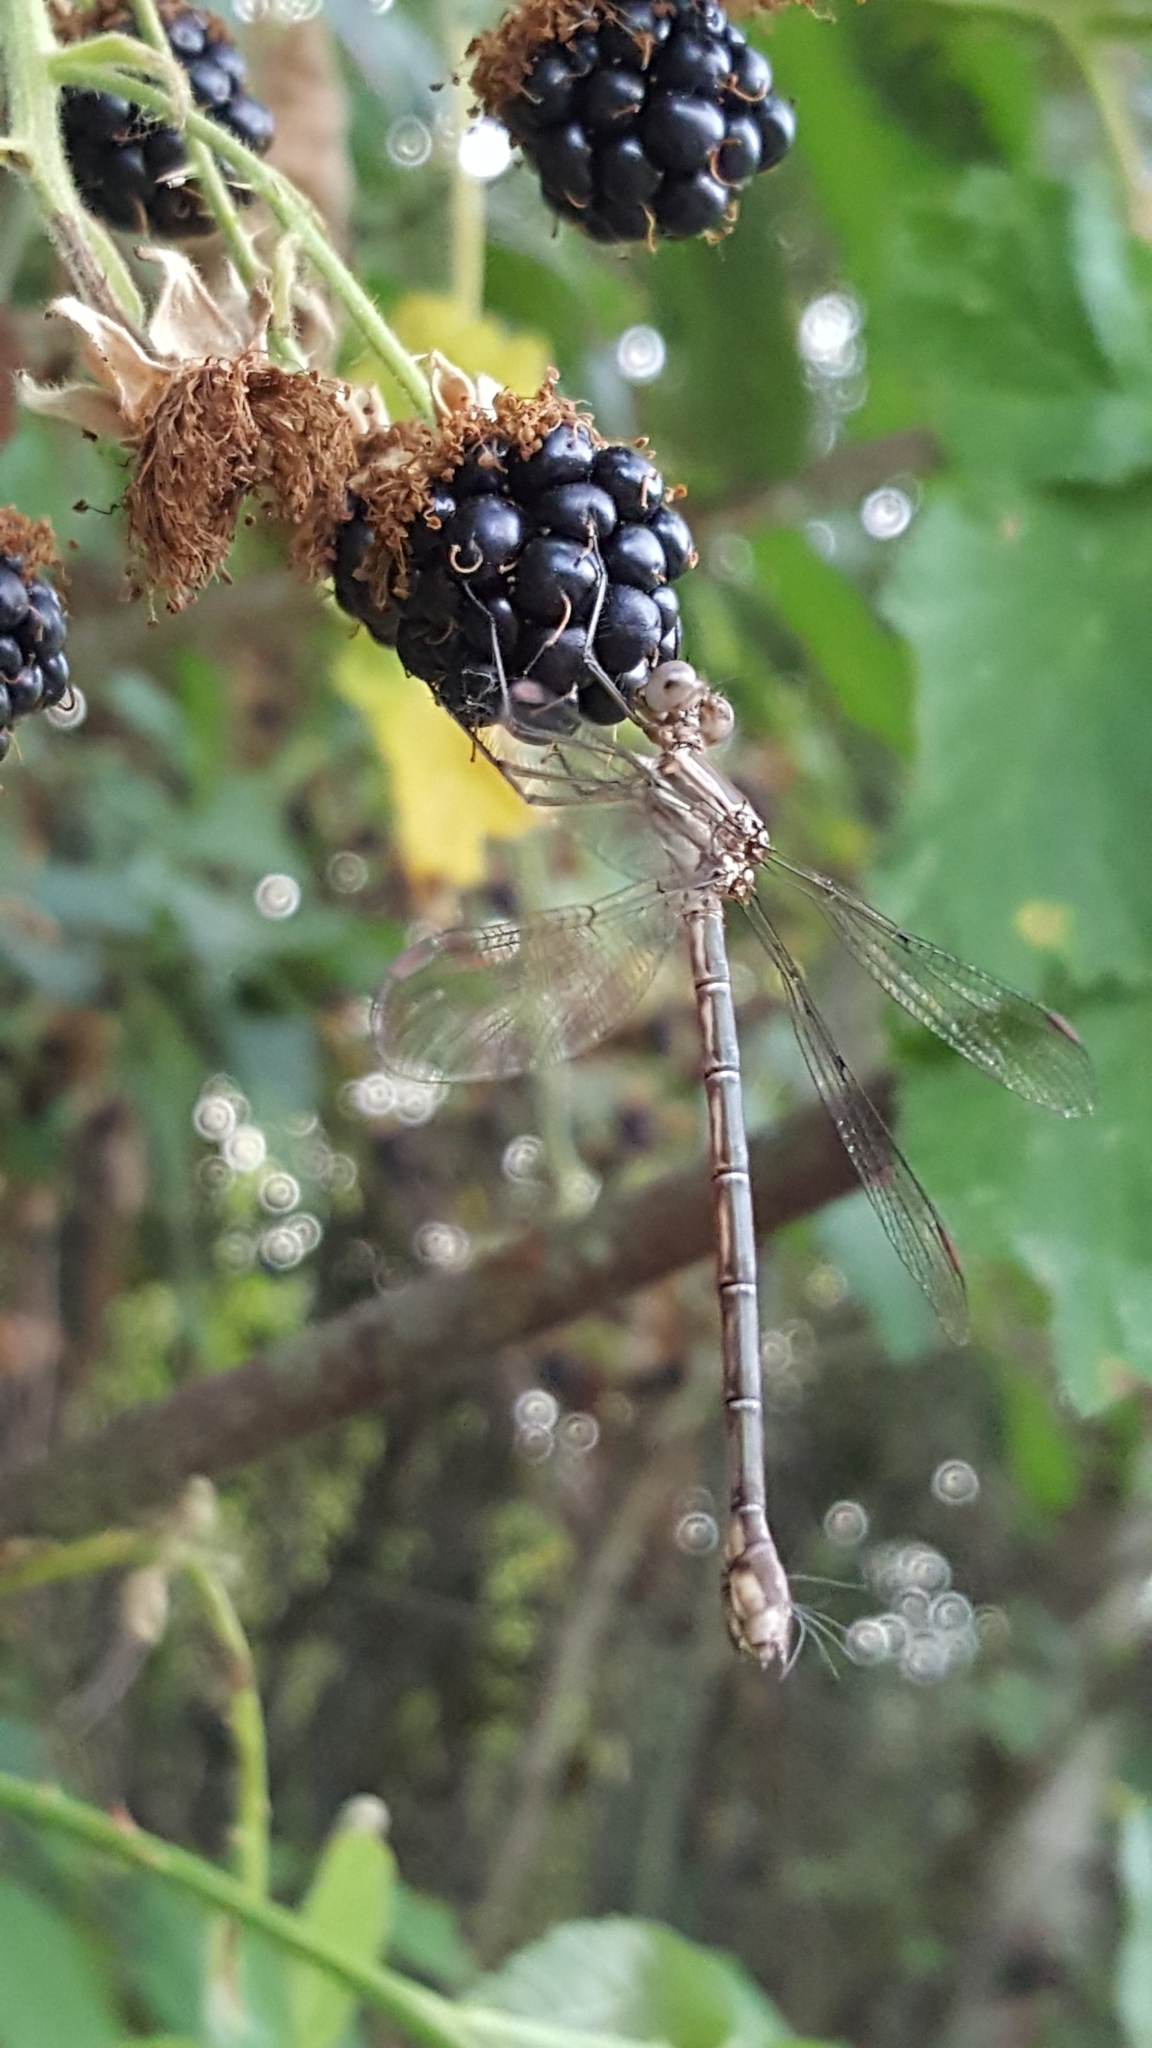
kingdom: Animalia
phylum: Arthropoda
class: Insecta
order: Odonata
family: Lestidae
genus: Archilestes
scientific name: Archilestes californicus
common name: California spreadwing
